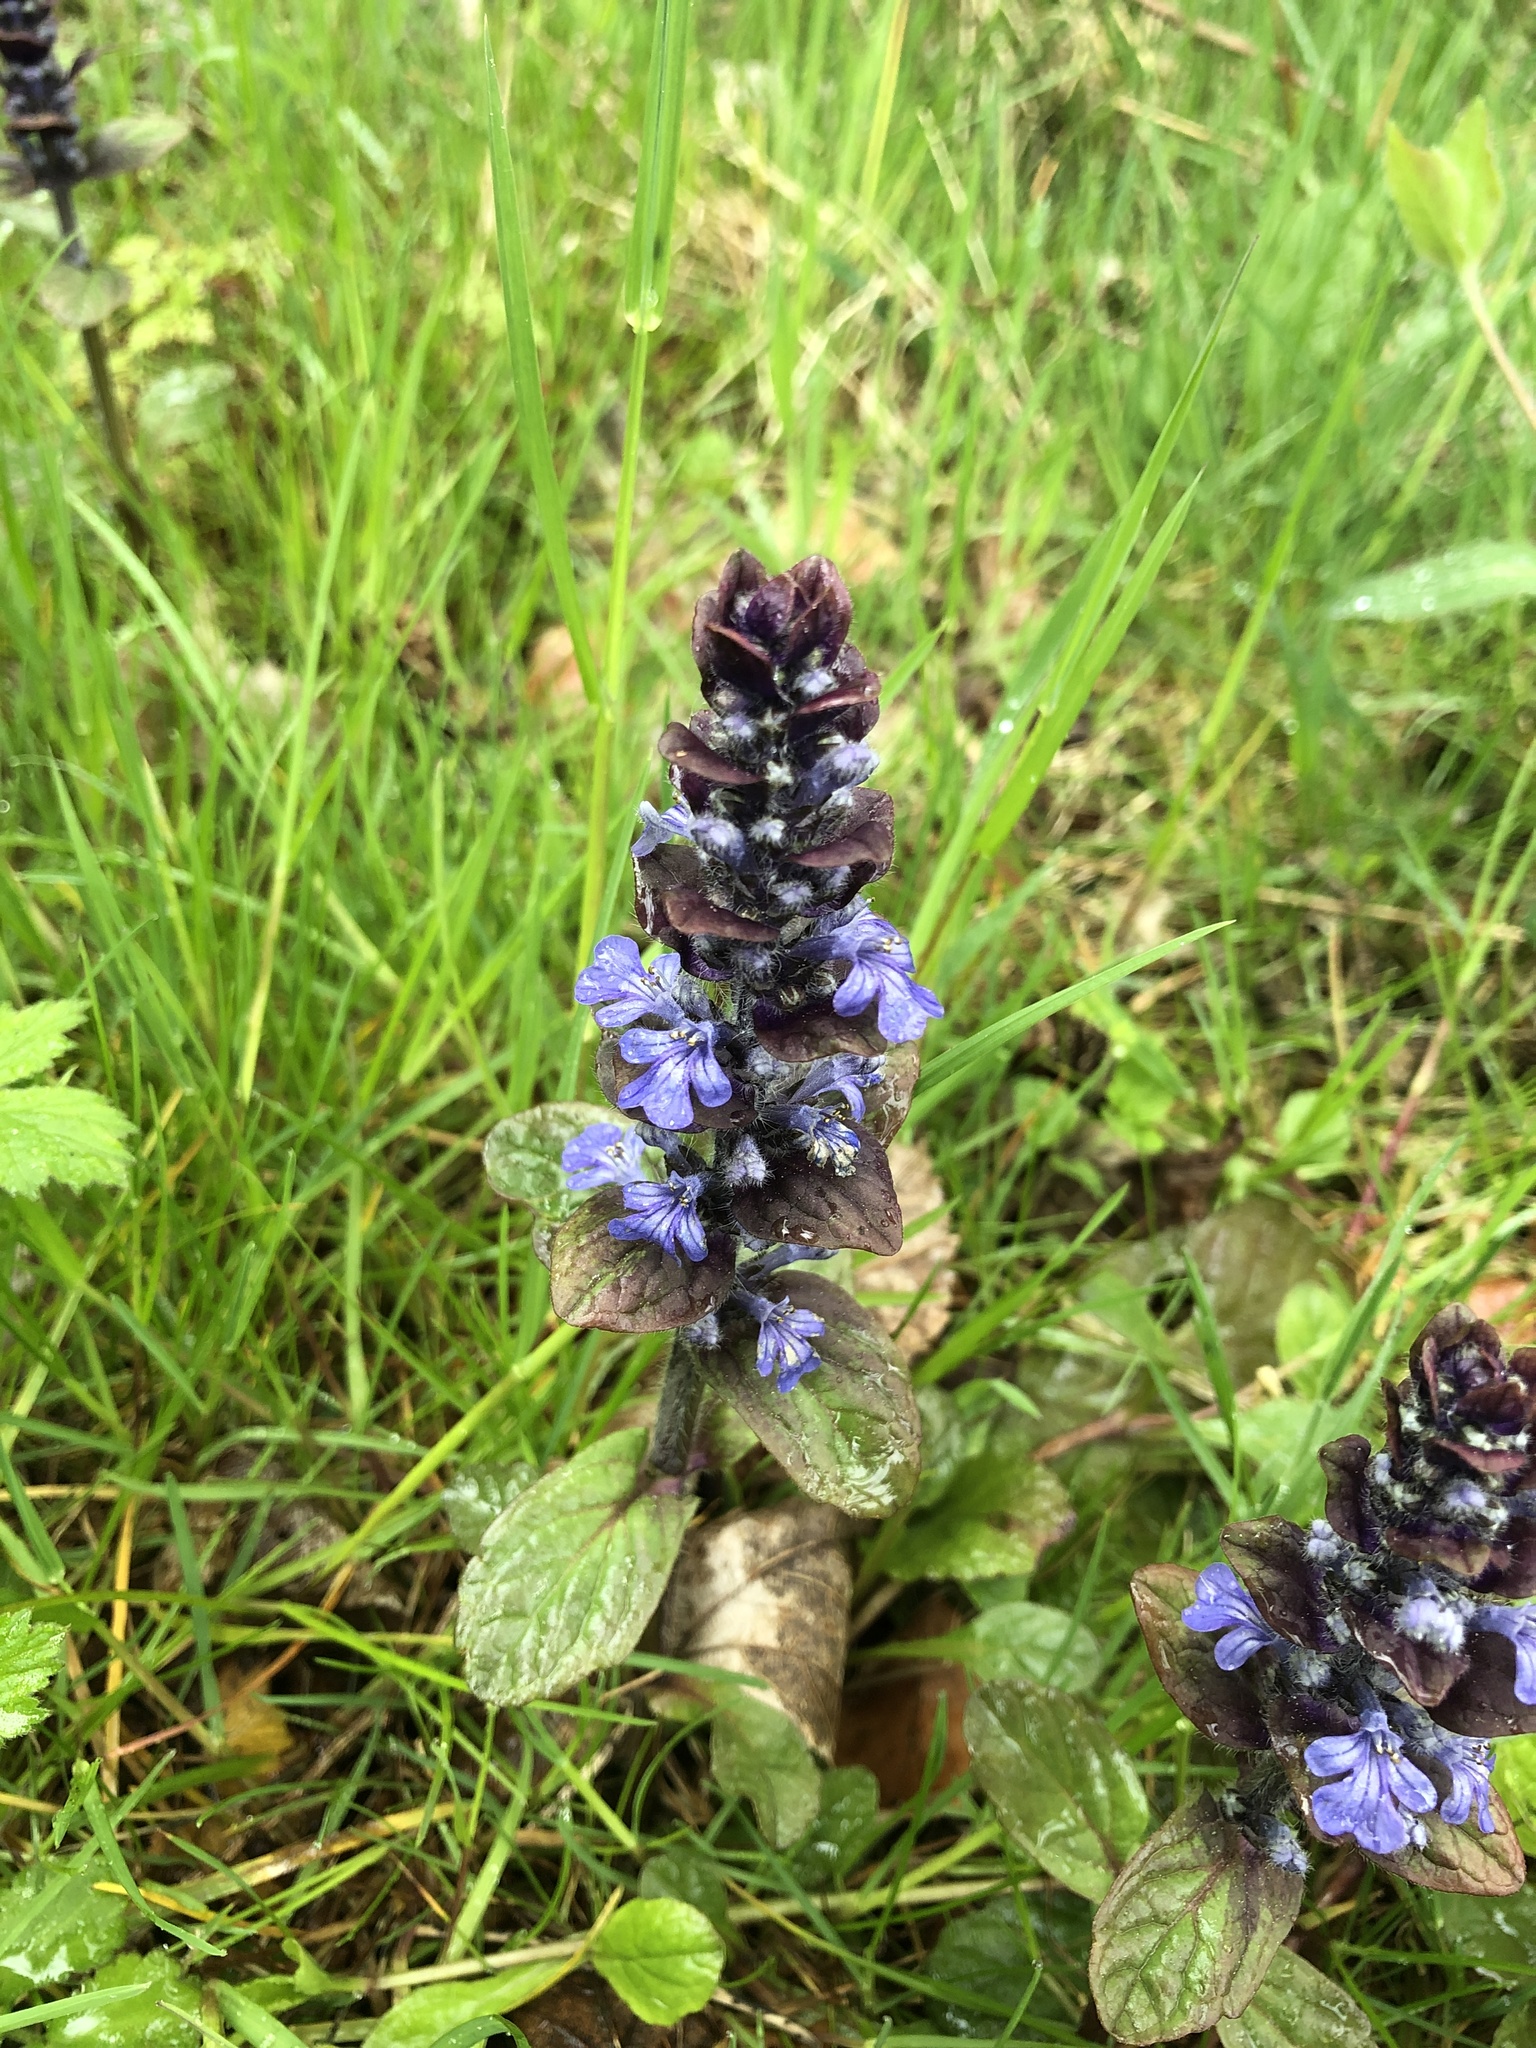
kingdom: Plantae
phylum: Tracheophyta
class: Magnoliopsida
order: Lamiales
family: Lamiaceae
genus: Ajuga
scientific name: Ajuga reptans
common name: Bugle
